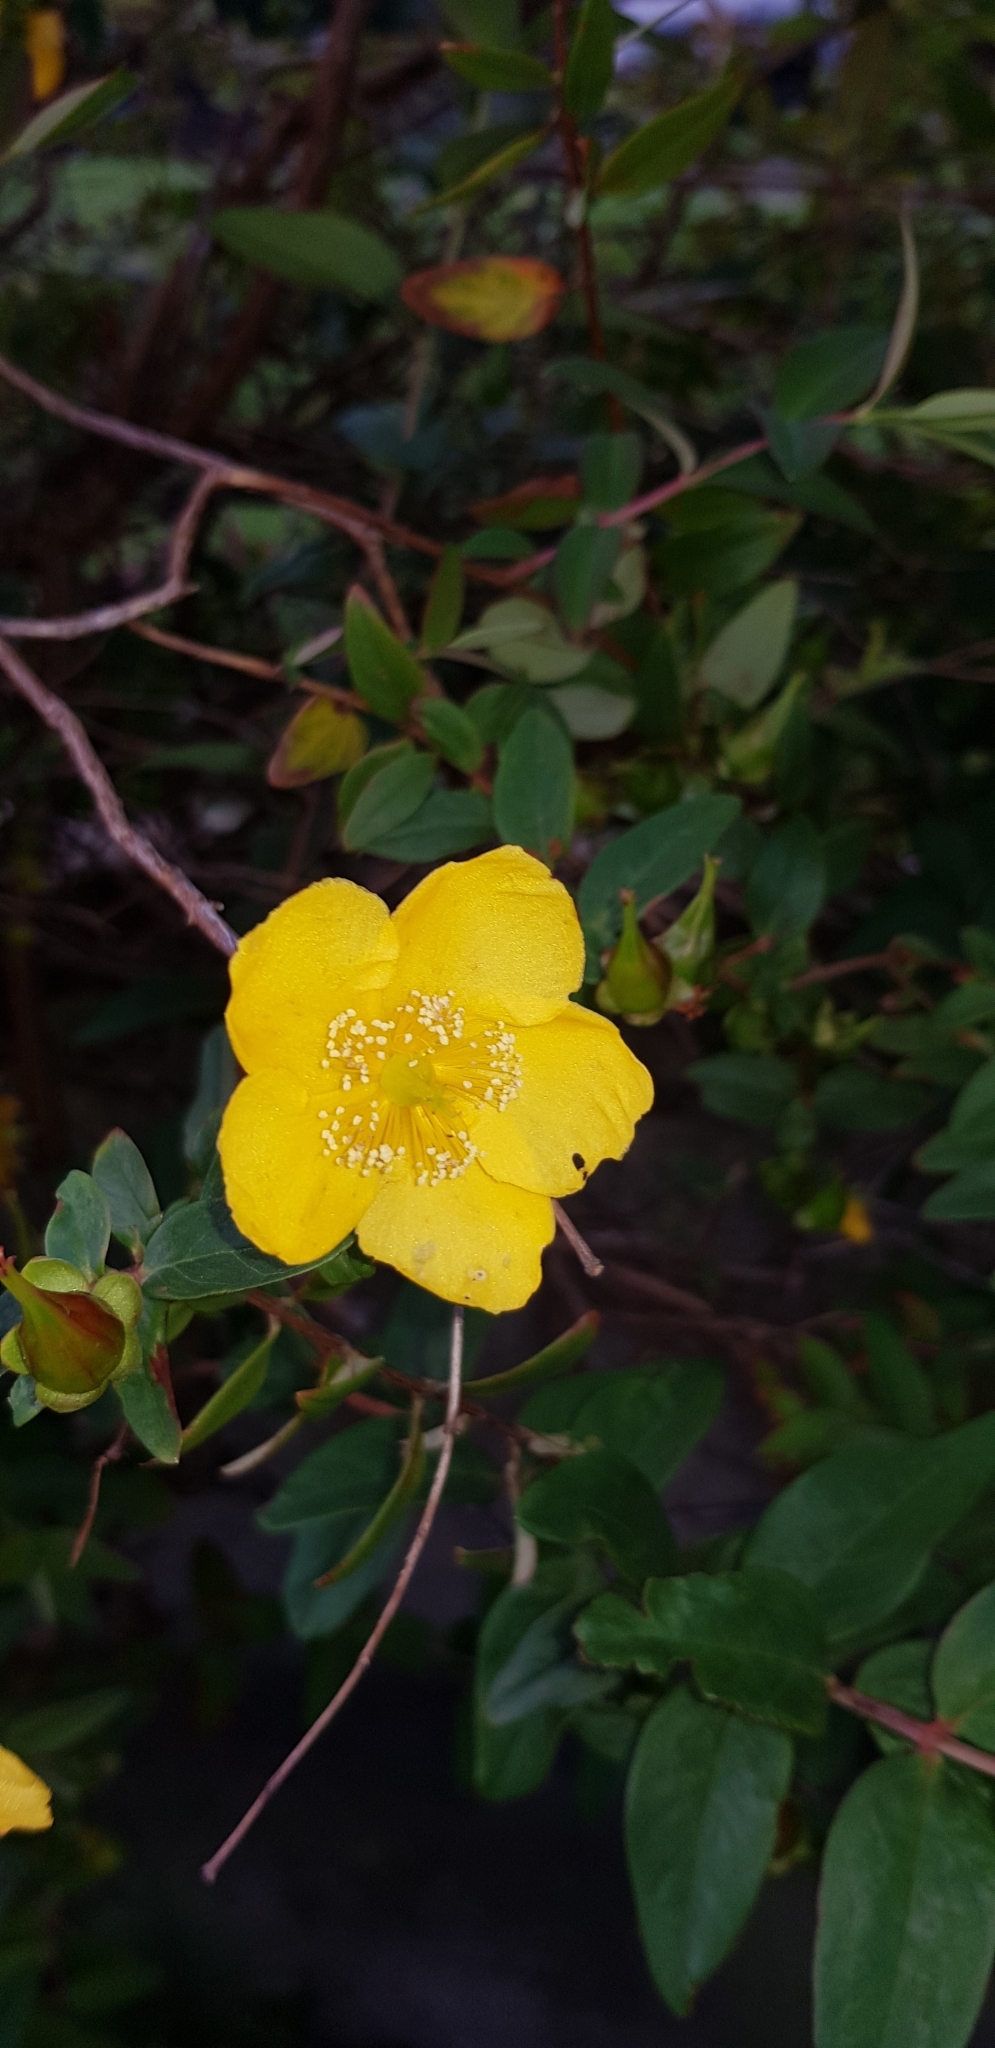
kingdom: Plantae
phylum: Tracheophyta
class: Magnoliopsida
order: Malpighiales
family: Hypericaceae
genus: Hypericum
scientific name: Hypericum calycinum
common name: Rose-of-sharon
